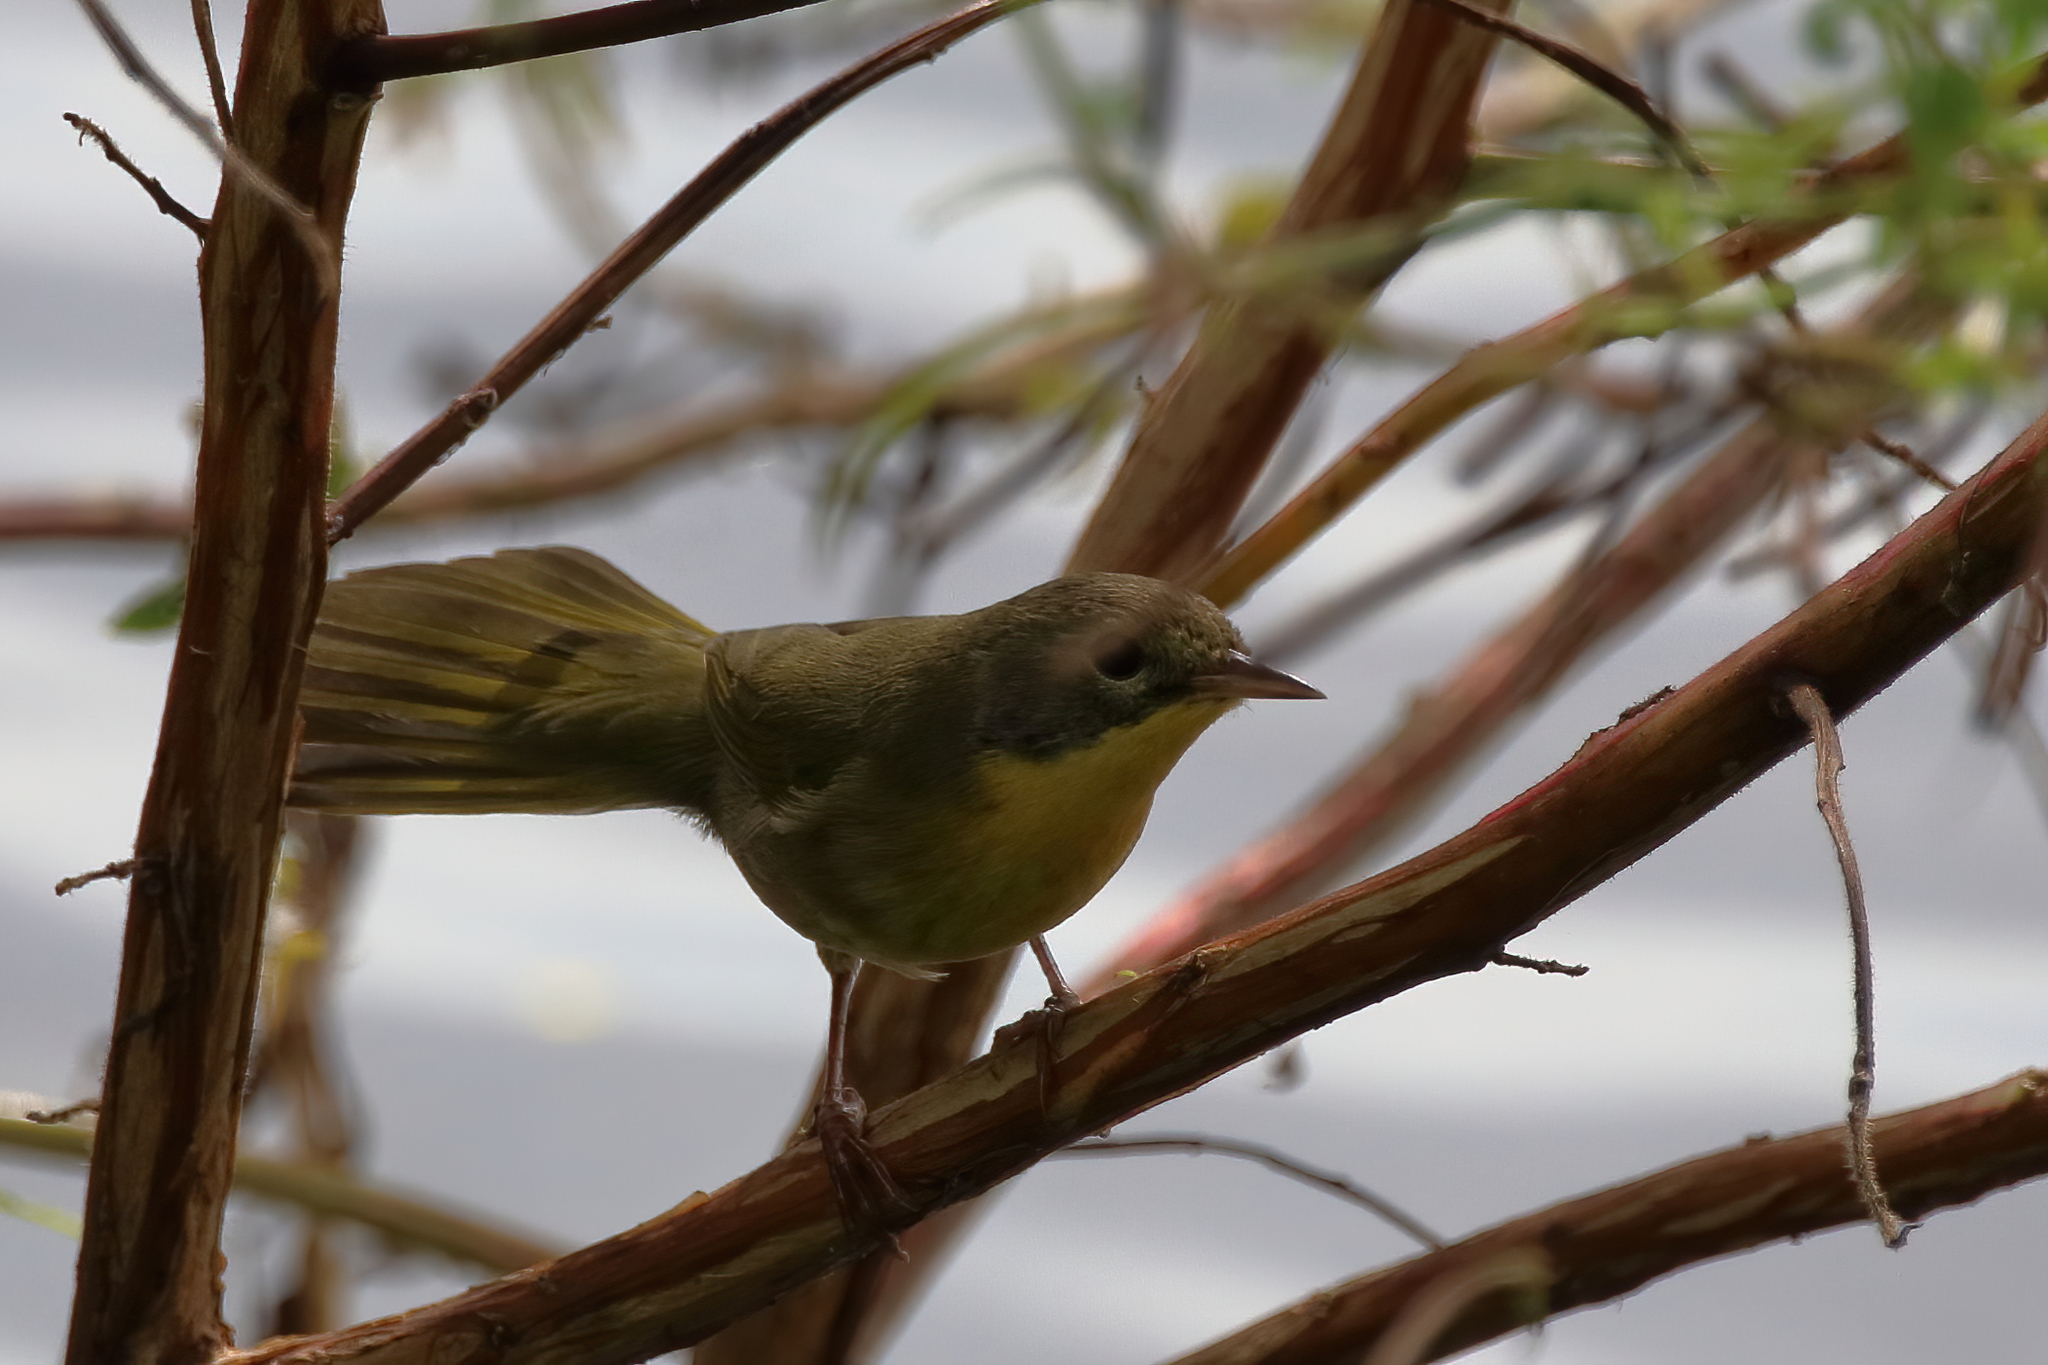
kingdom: Animalia
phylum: Chordata
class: Aves
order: Passeriformes
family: Parulidae
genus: Geothlypis
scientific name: Geothlypis trichas
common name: Common yellowthroat
